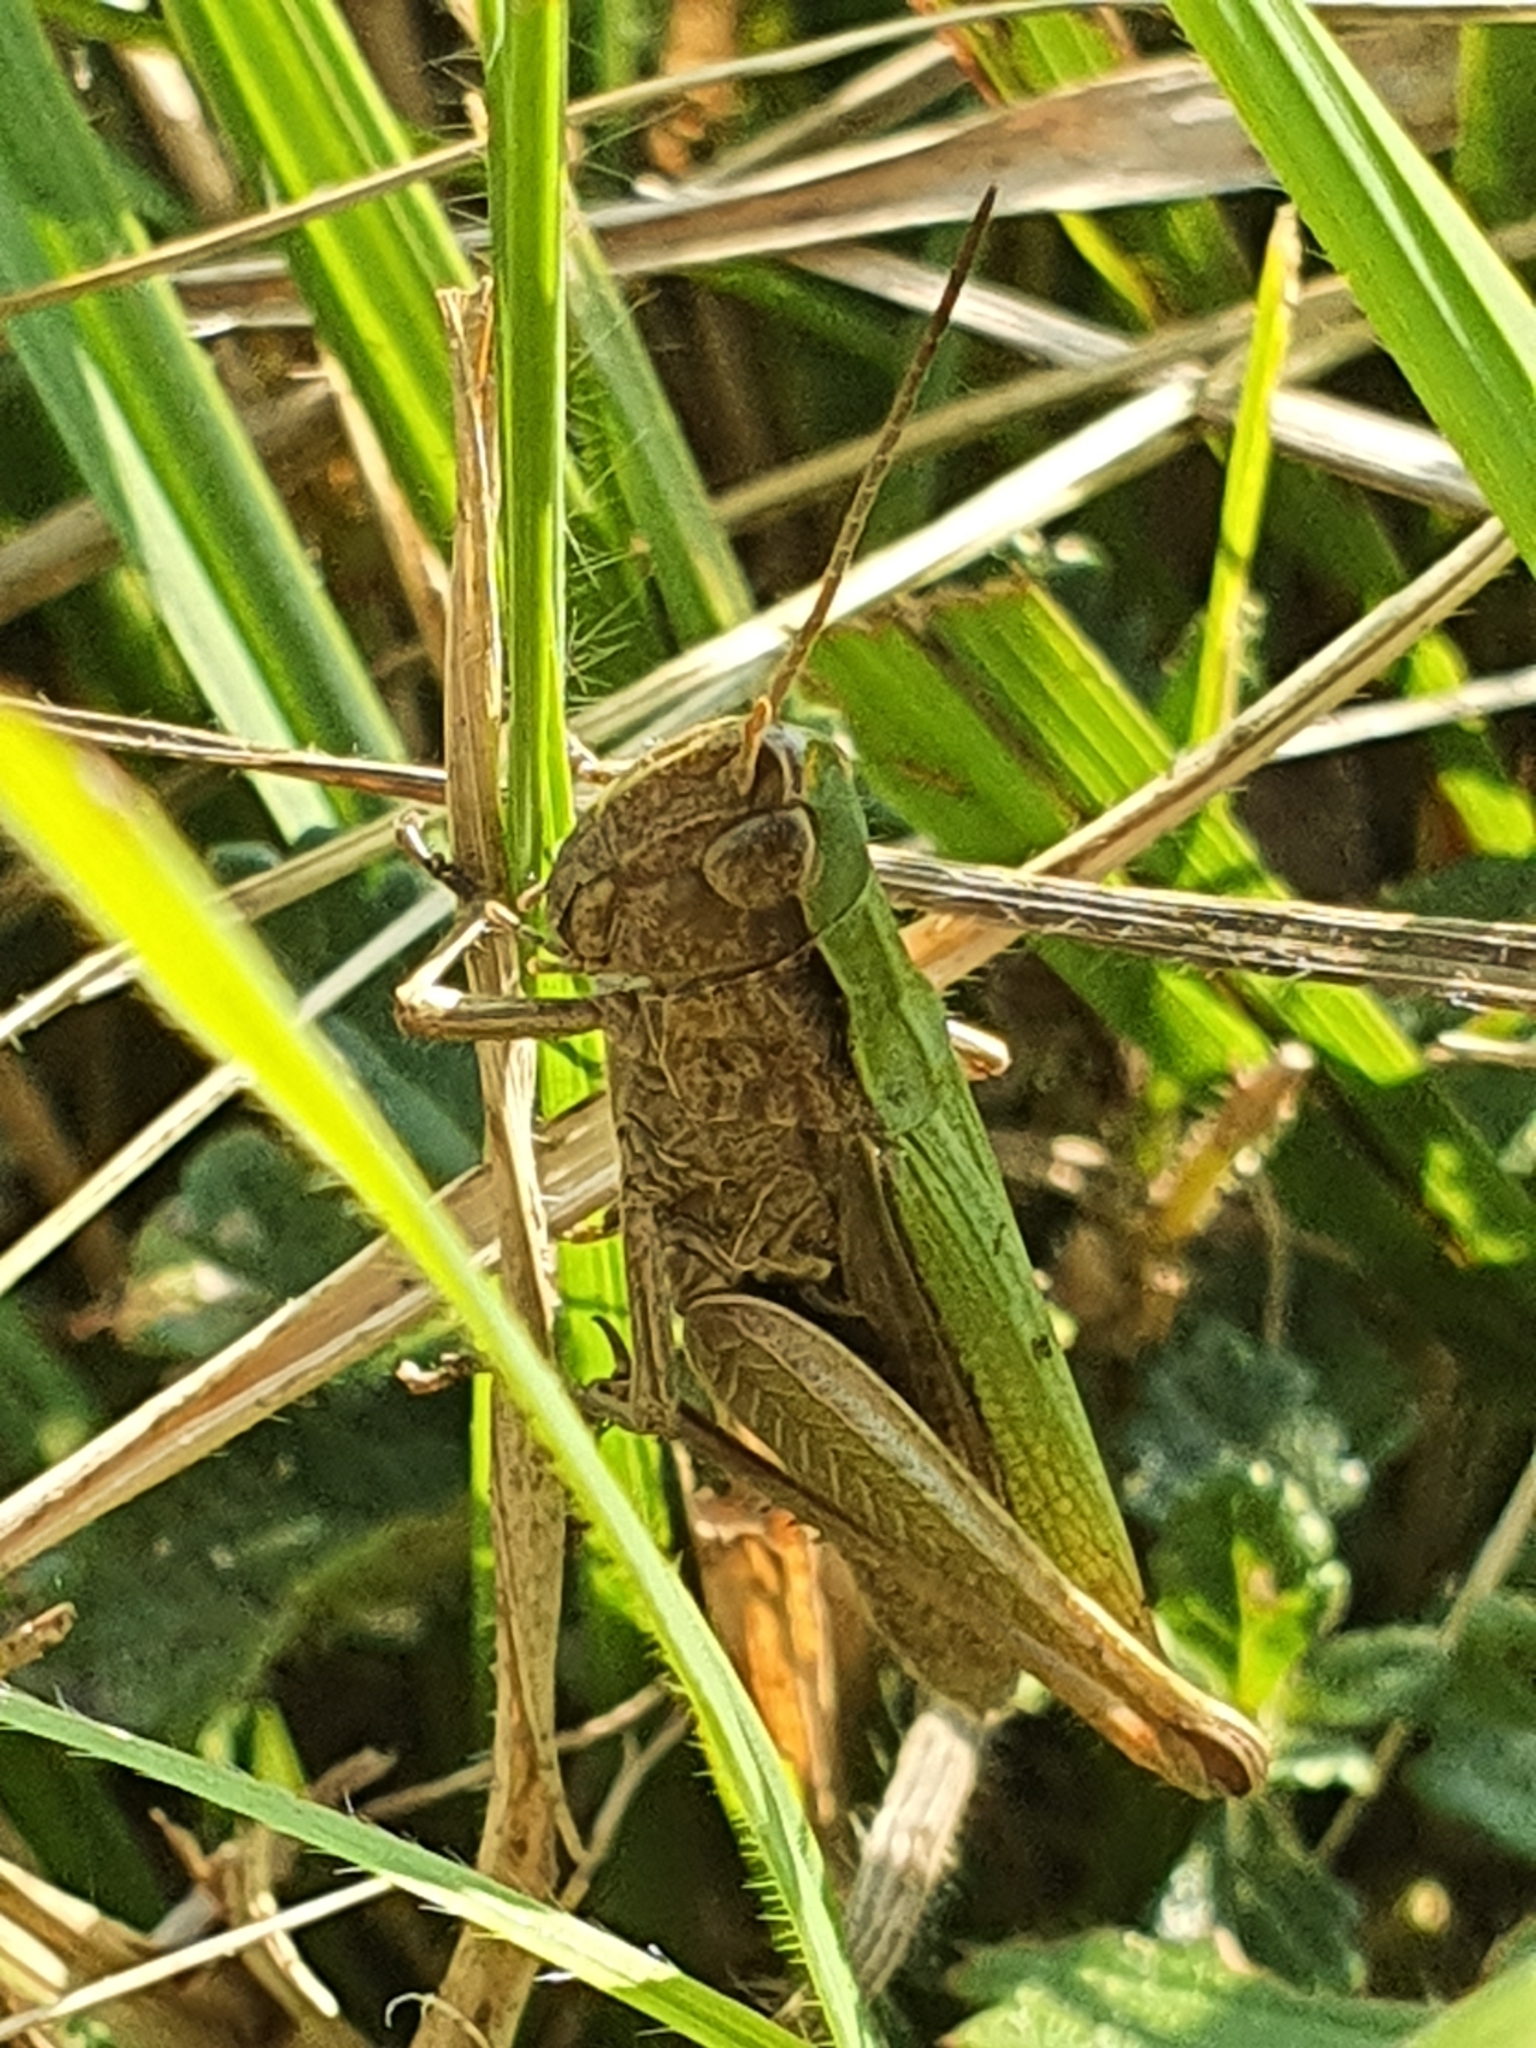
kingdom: Animalia
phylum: Arthropoda
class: Insecta
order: Orthoptera
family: Acrididae
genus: Chorthippus
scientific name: Chorthippus dorsatus
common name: Steppe grasshopper
